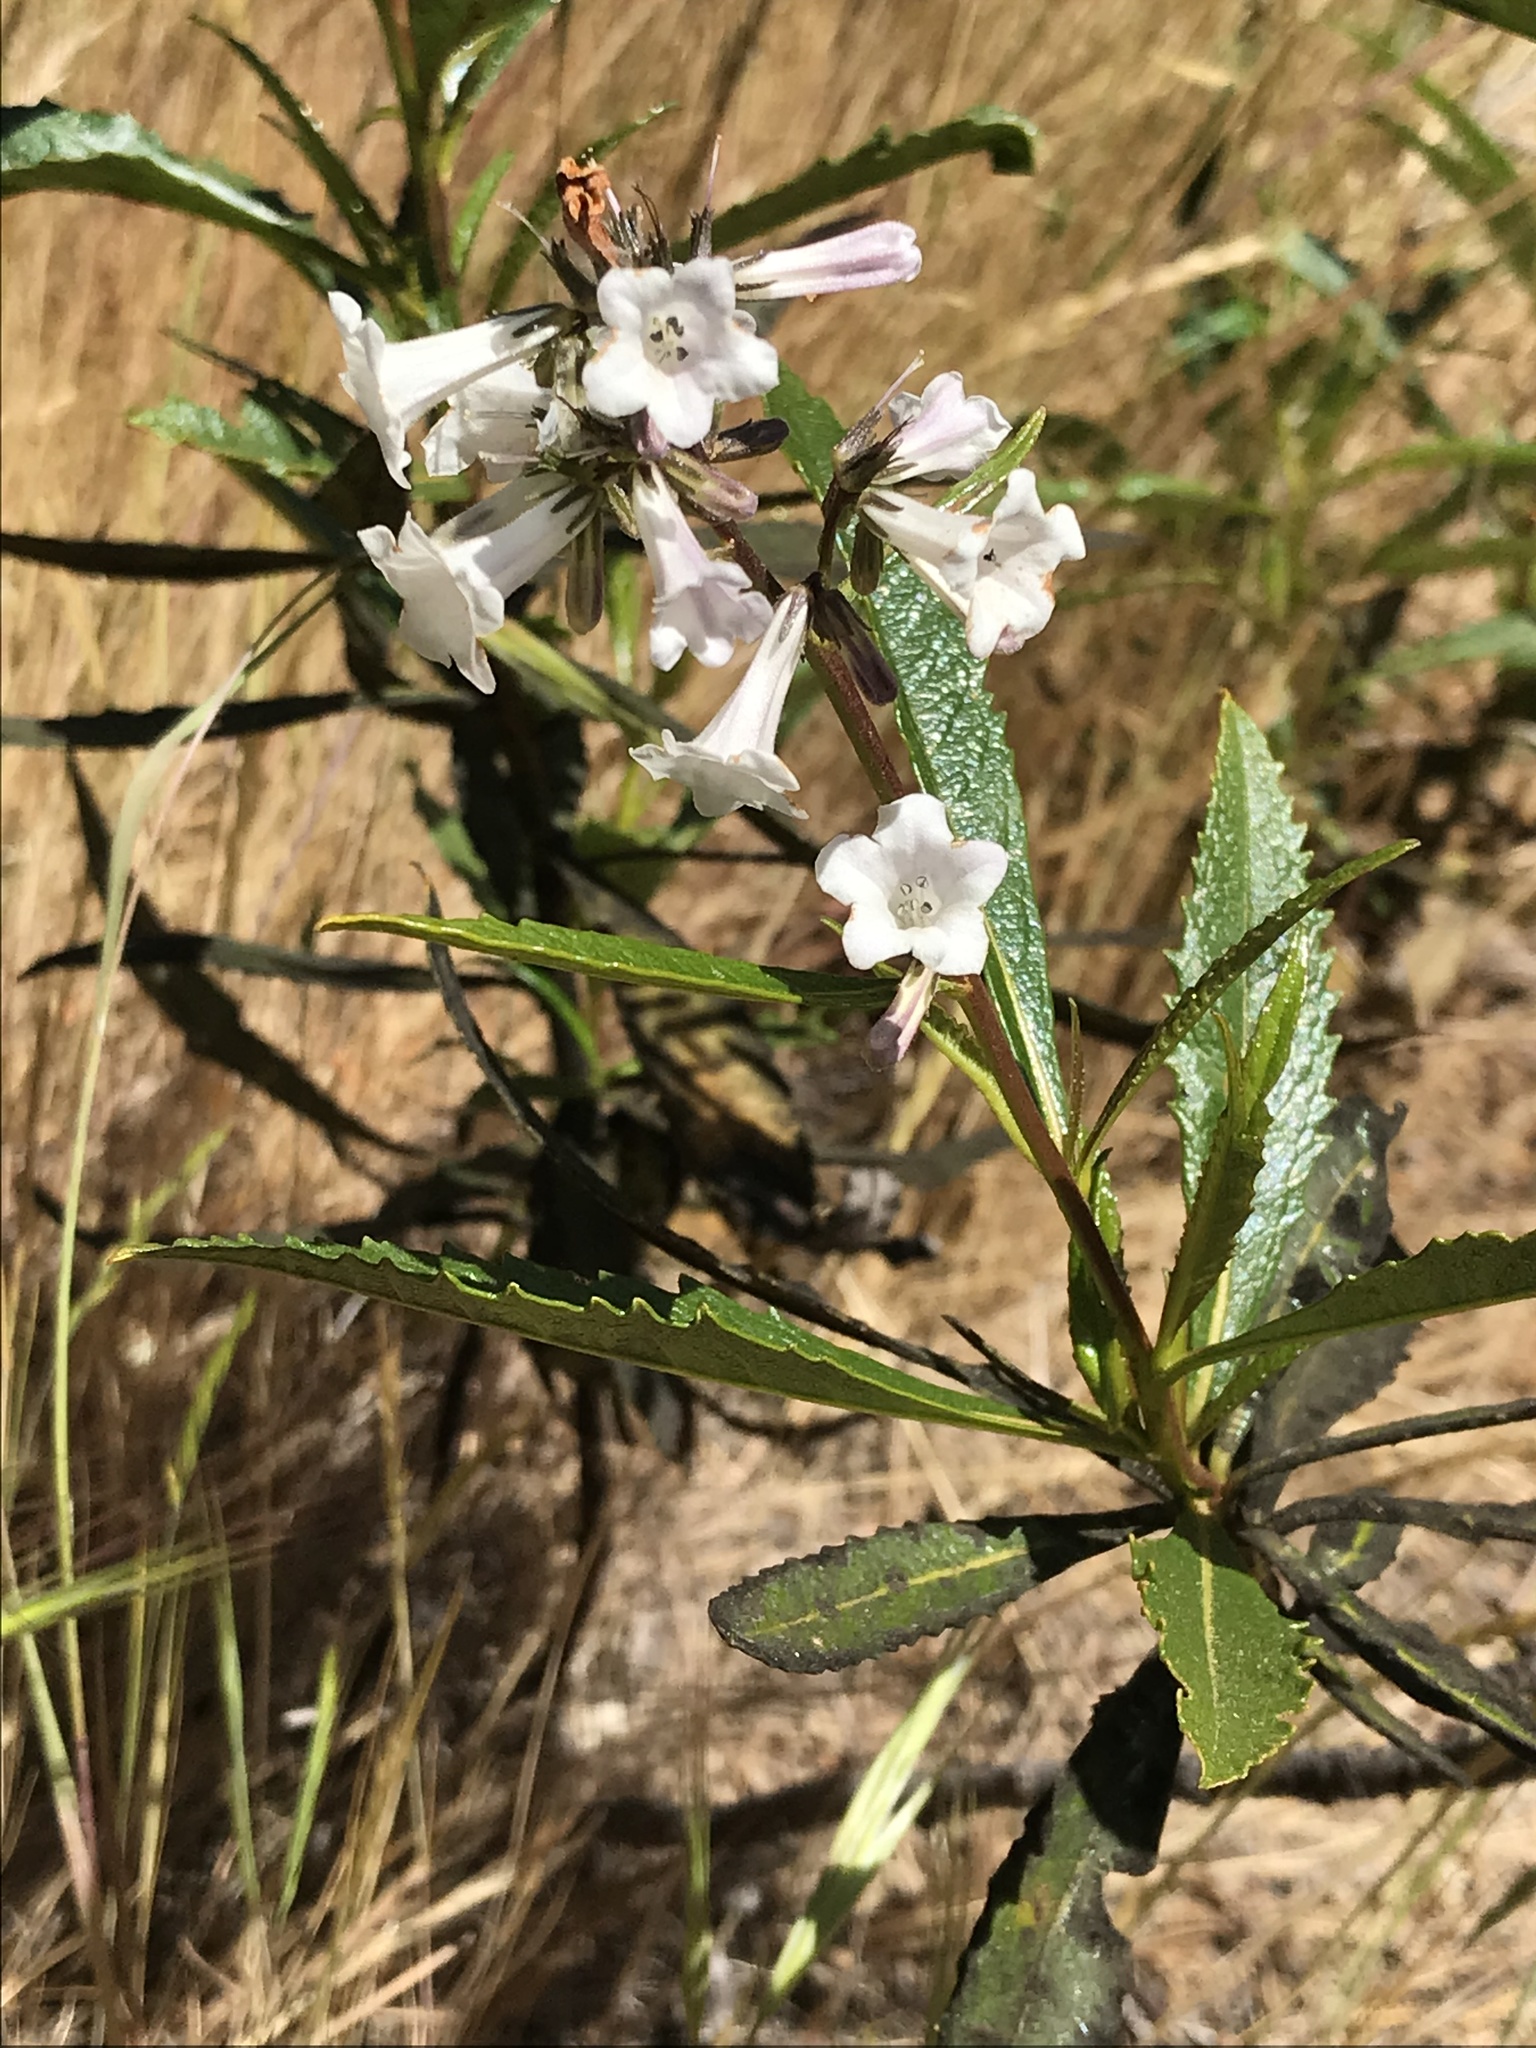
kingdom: Plantae
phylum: Tracheophyta
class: Magnoliopsida
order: Boraginales
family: Namaceae
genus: Eriodictyon
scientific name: Eriodictyon californicum
